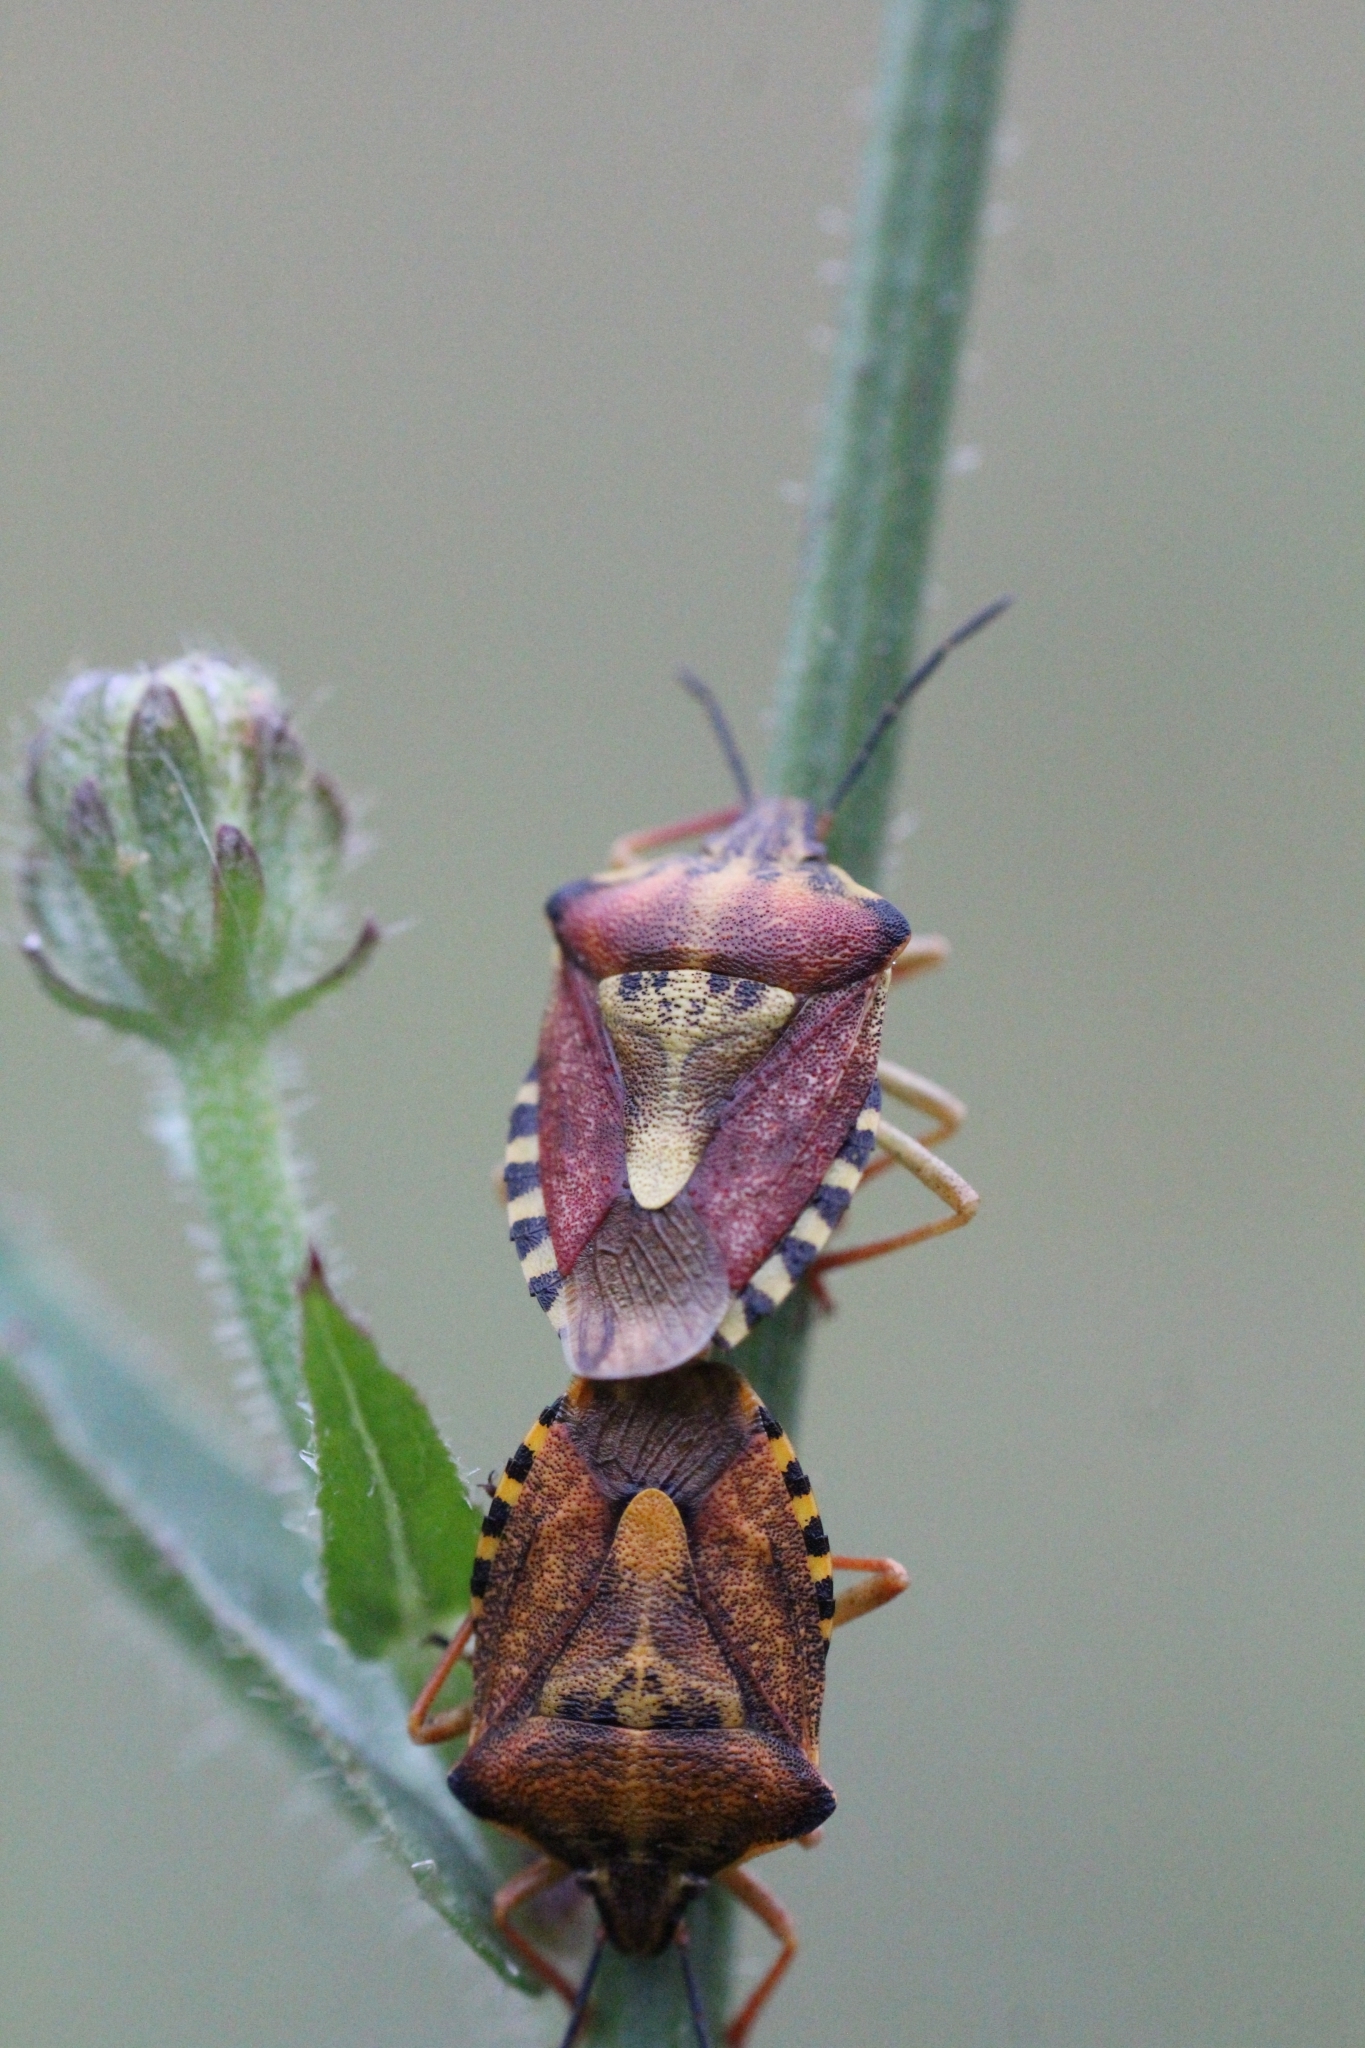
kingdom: Animalia
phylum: Arthropoda
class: Insecta
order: Hemiptera
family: Pentatomidae
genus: Carpocoris
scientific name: Carpocoris purpureipennis
